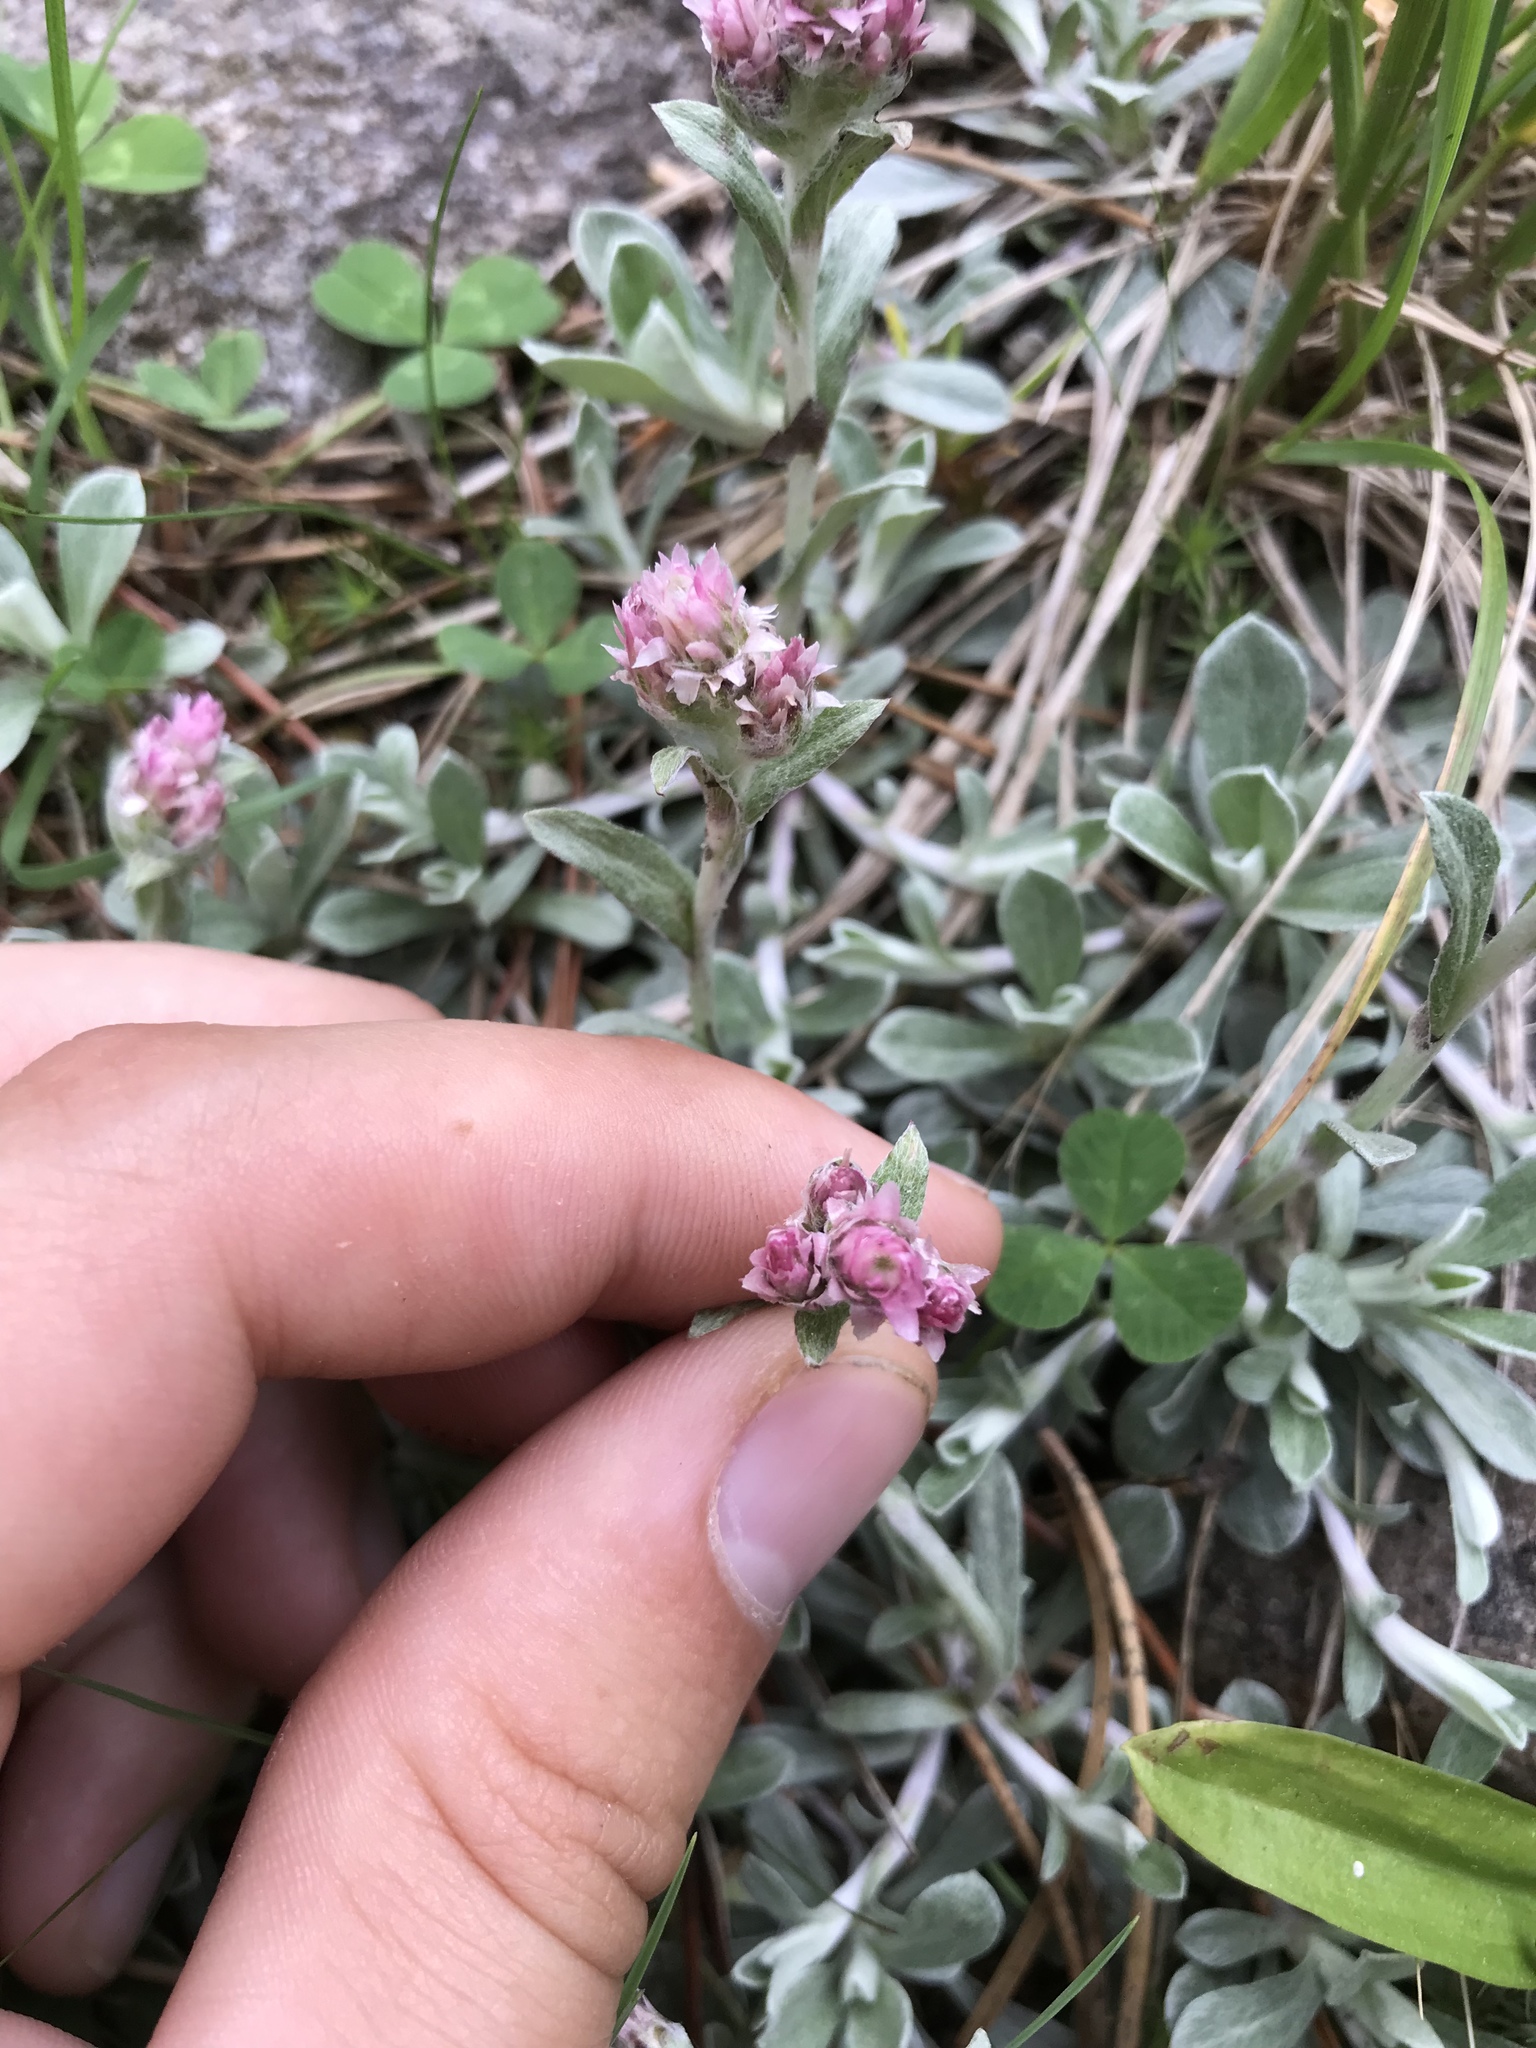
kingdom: Plantae
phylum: Tracheophyta
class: Magnoliopsida
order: Asterales
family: Asteraceae
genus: Antennaria
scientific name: Antennaria rosea
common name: Rosy pussytoes
